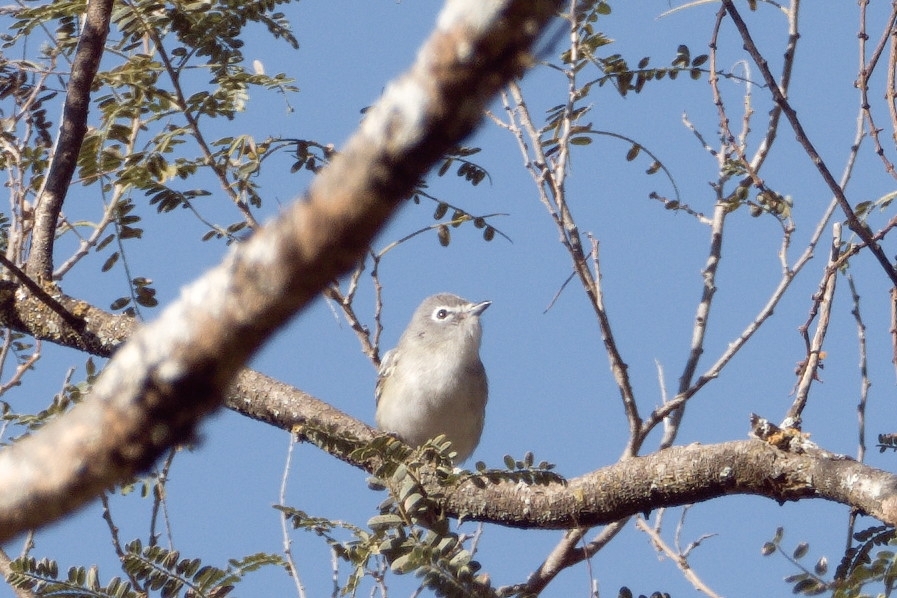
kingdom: Animalia
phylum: Chordata
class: Aves
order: Passeriformes
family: Vireonidae
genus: Vireo
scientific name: Vireo plumbeus
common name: Plumbeous vireo
